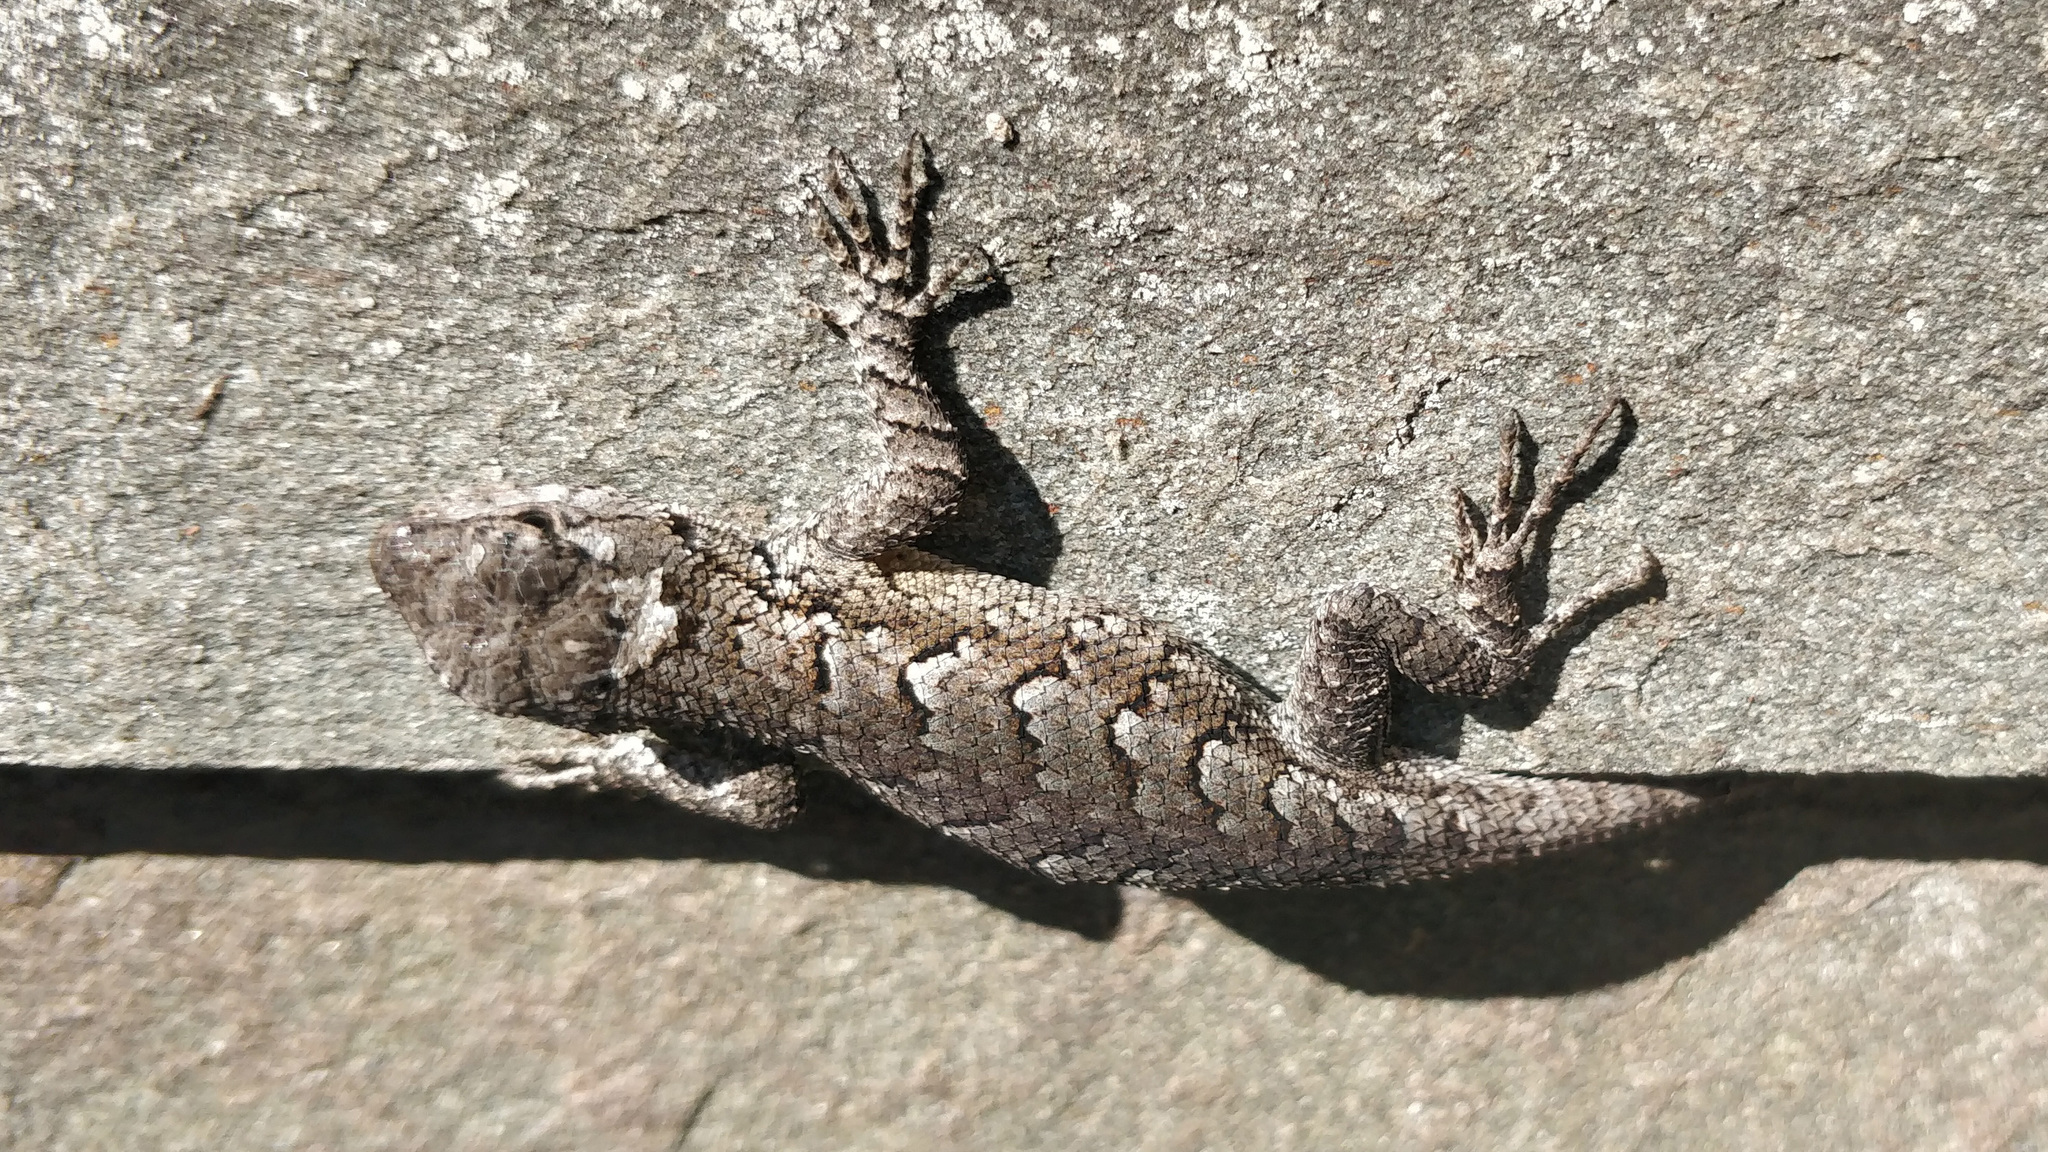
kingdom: Animalia
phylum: Chordata
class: Squamata
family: Phrynosomatidae
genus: Sceloporus
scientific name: Sceloporus undulatus
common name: Eastern fence lizard
